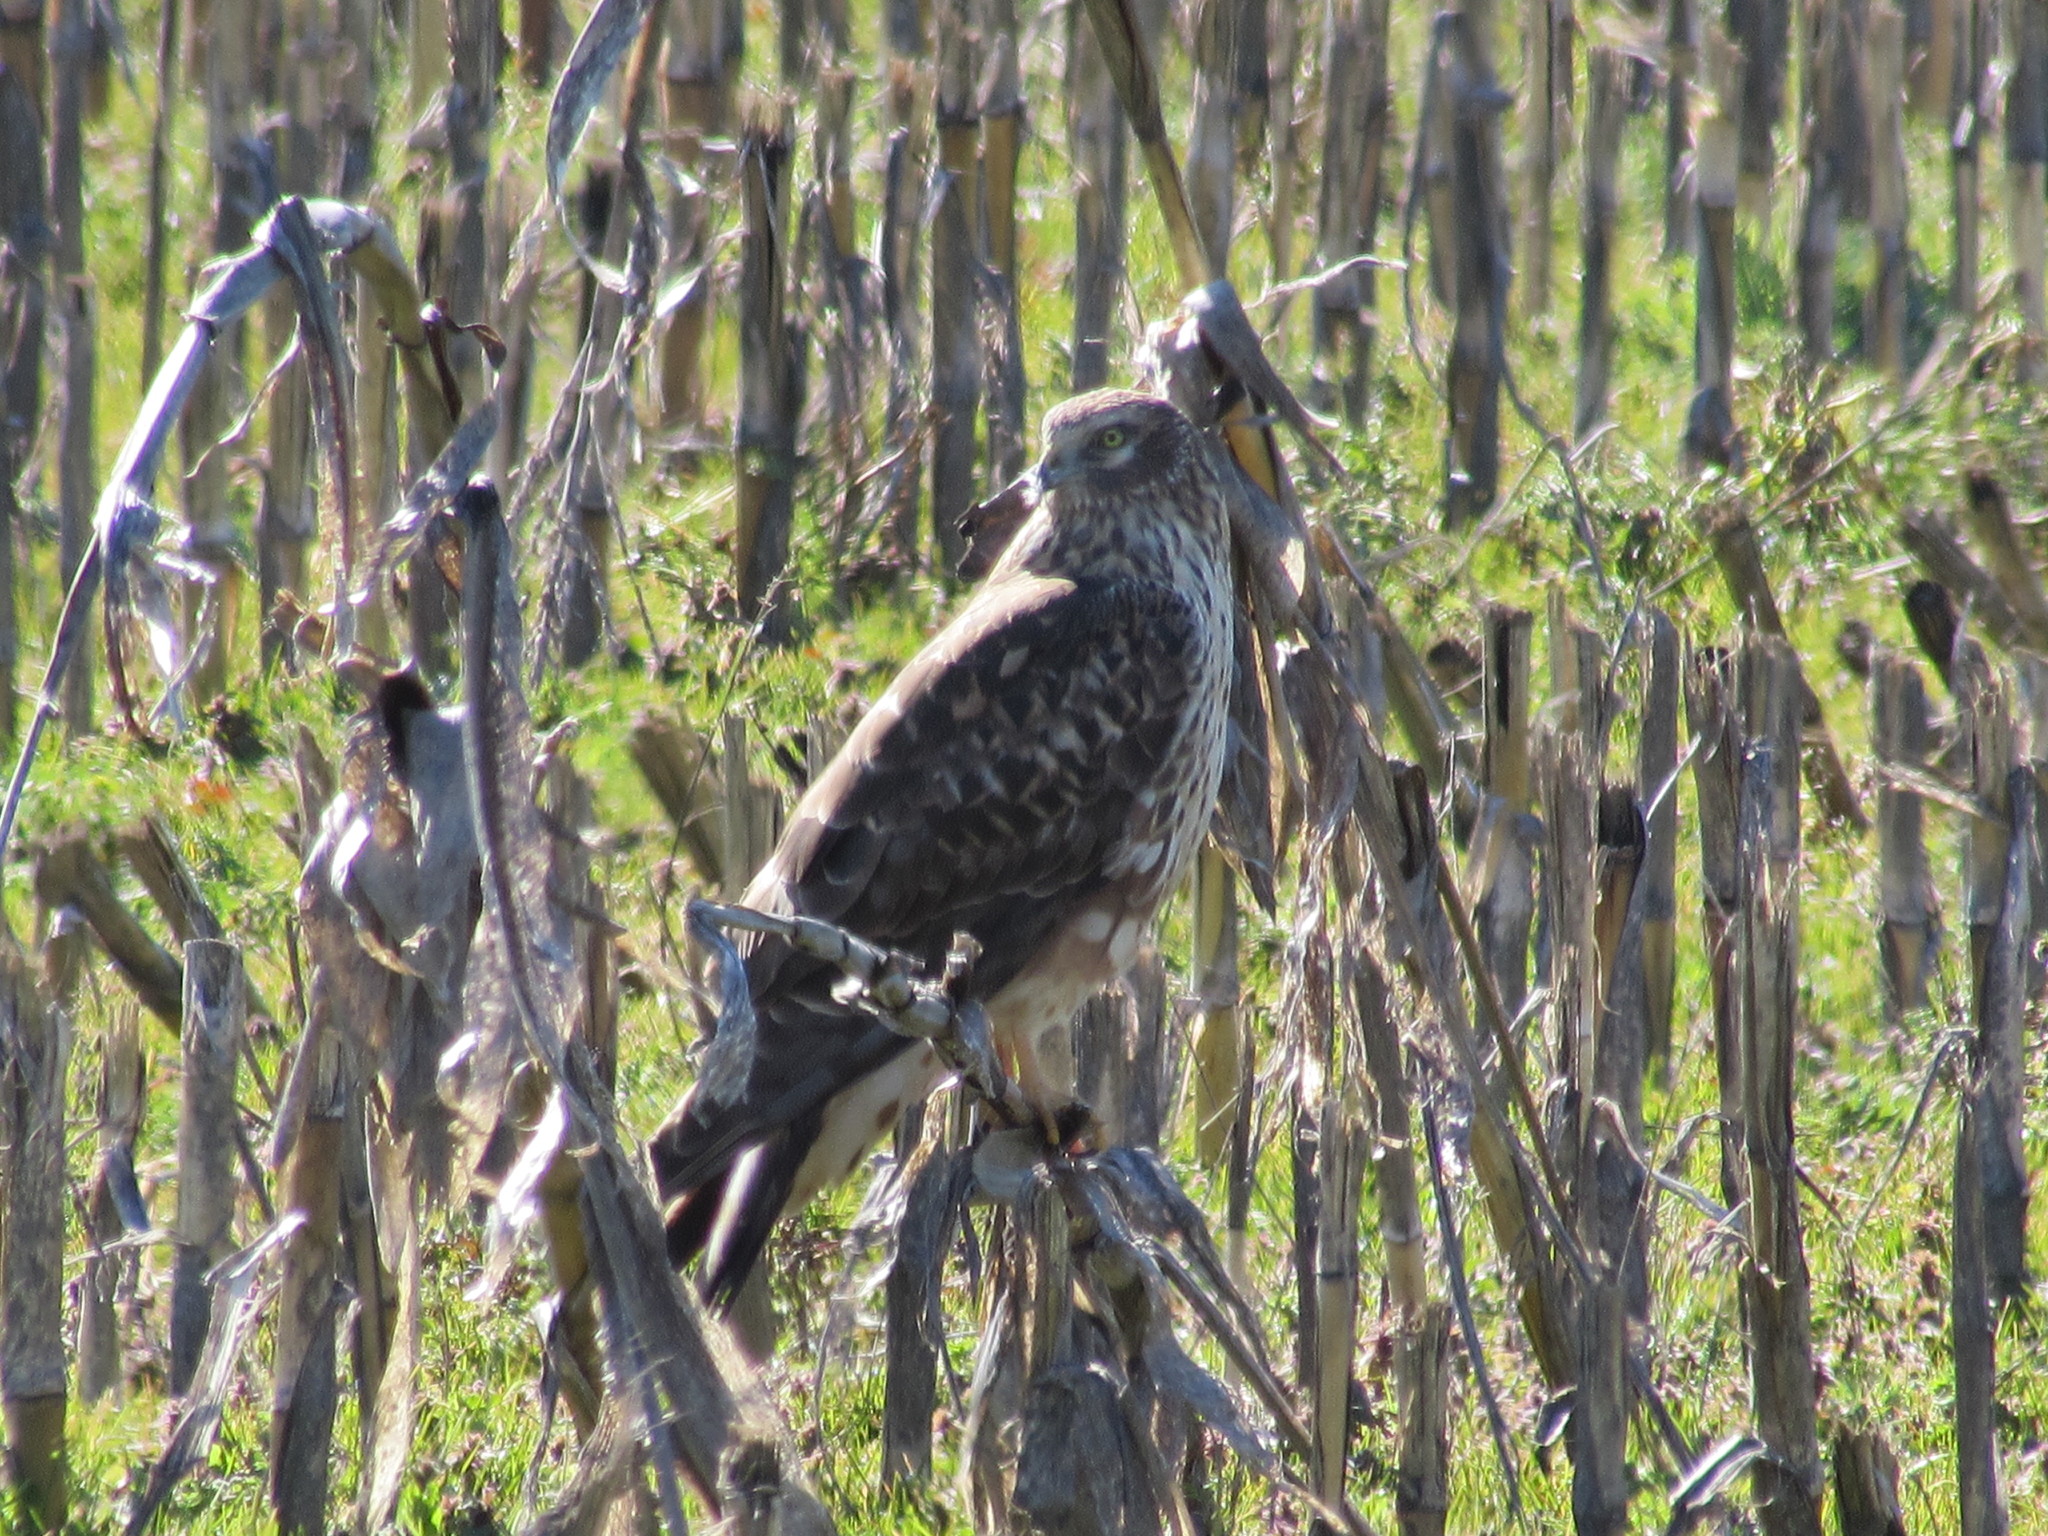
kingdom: Animalia
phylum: Chordata
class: Aves
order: Accipitriformes
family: Accipitridae
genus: Circus
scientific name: Circus cyaneus
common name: Hen harrier
